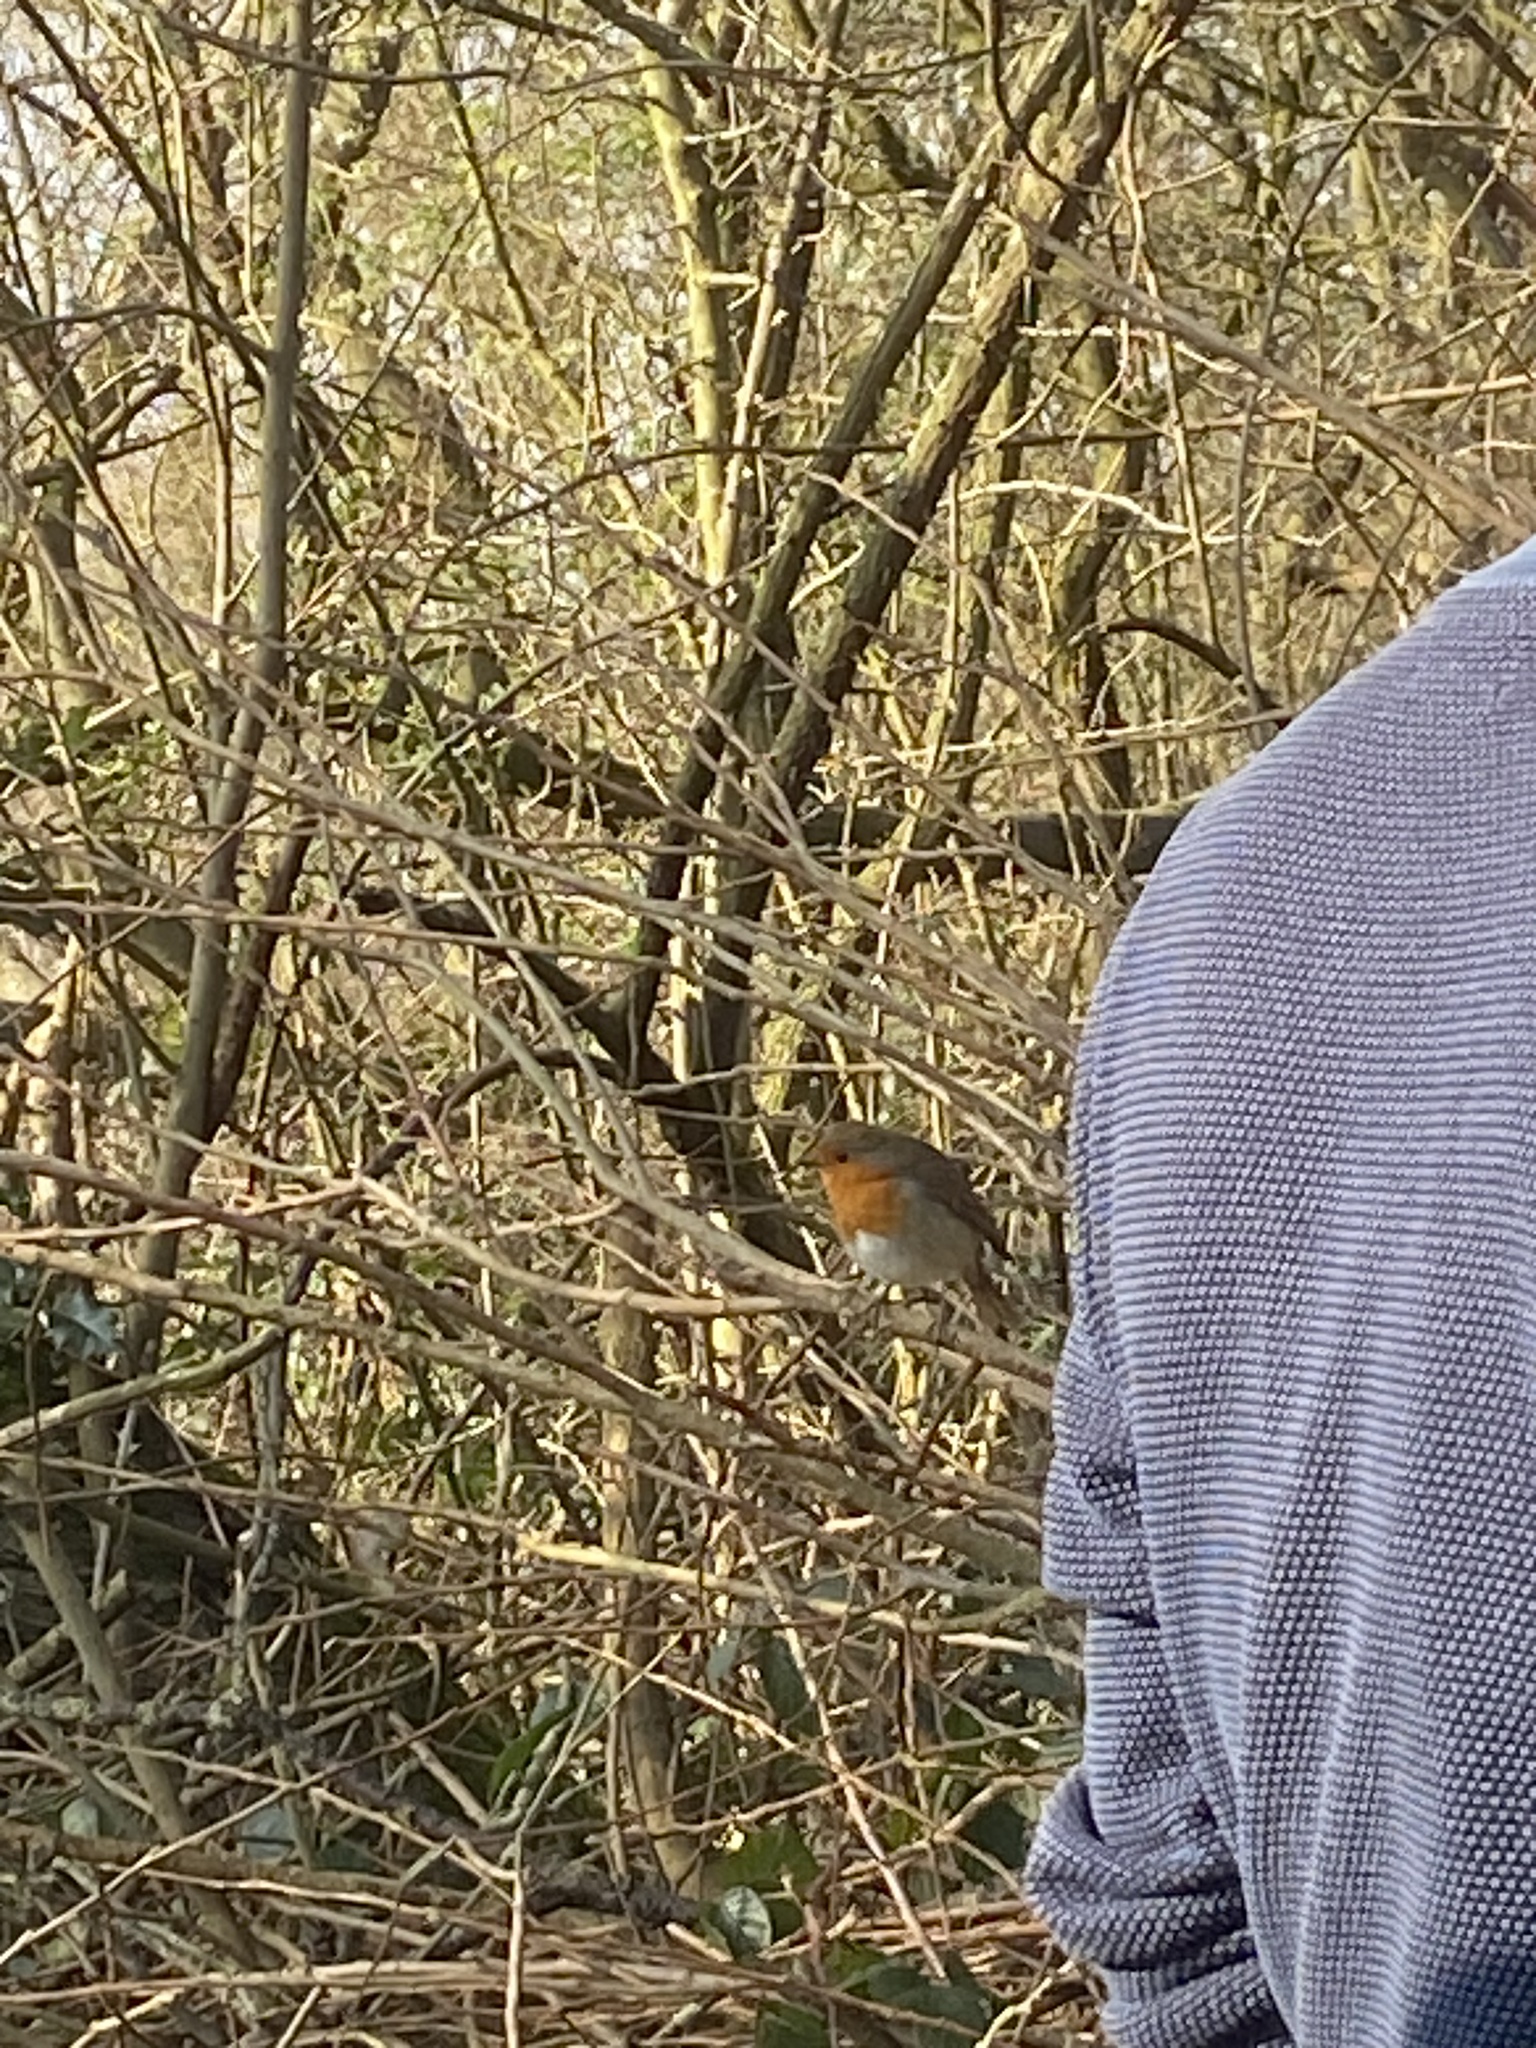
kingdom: Animalia
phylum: Chordata
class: Aves
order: Passeriformes
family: Muscicapidae
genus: Erithacus
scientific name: Erithacus rubecula
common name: European robin
